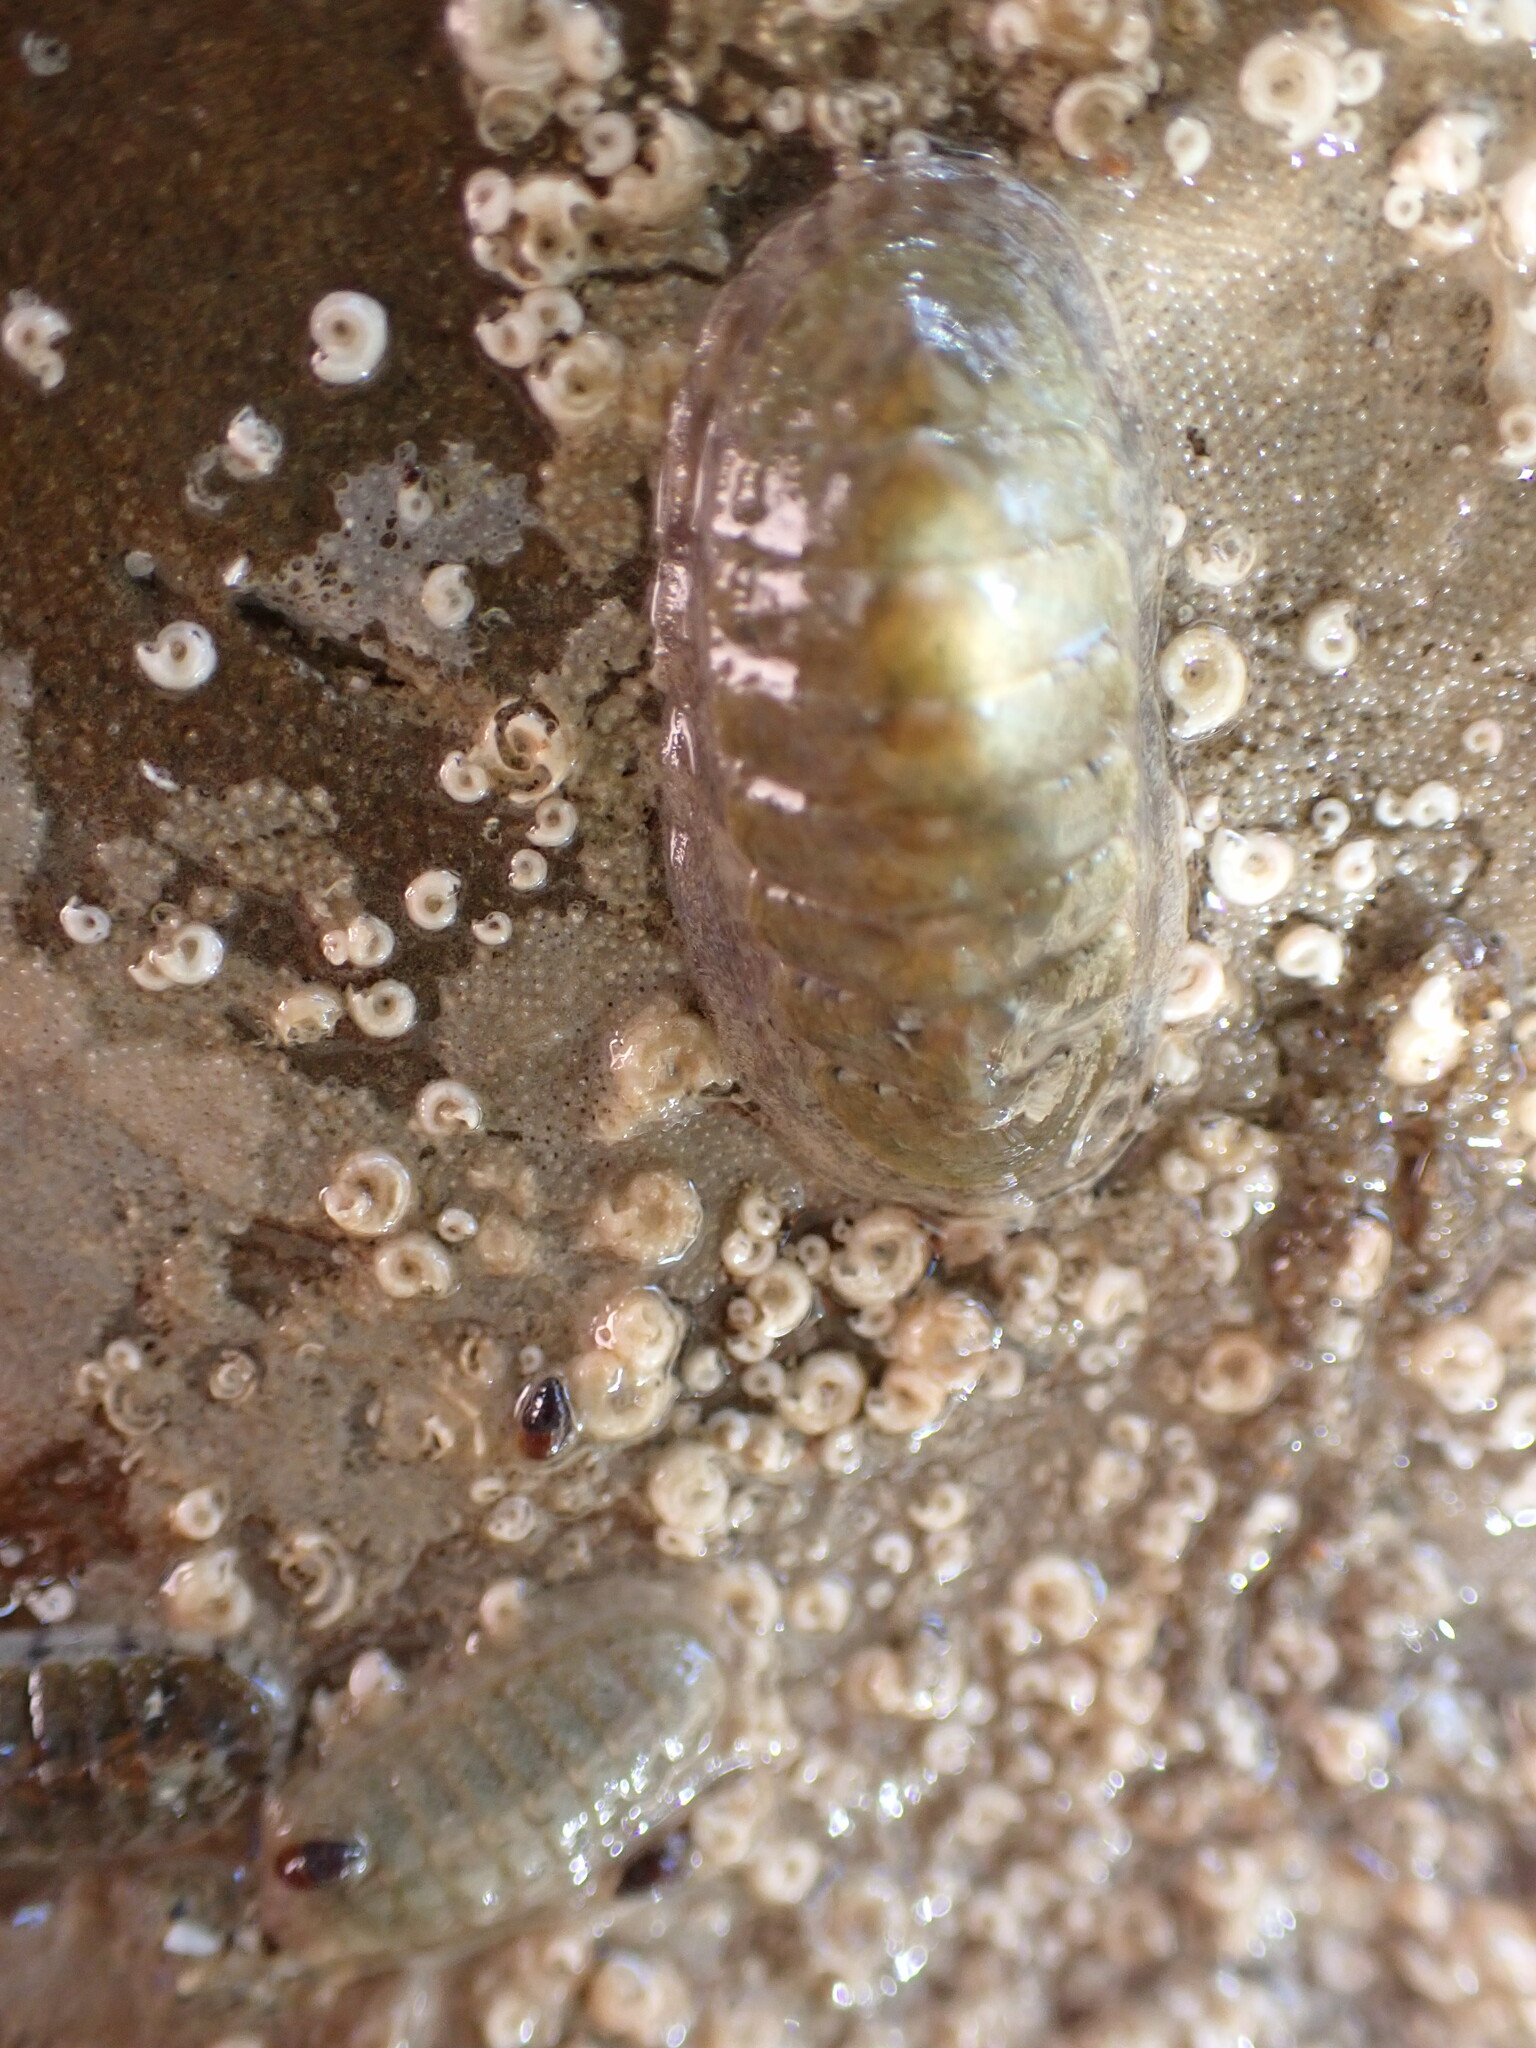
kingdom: Animalia
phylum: Mollusca
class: Polyplacophora
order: Chitonida
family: Ischnochitonidae
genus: Ischnochiton
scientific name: Ischnochiton maorianus
